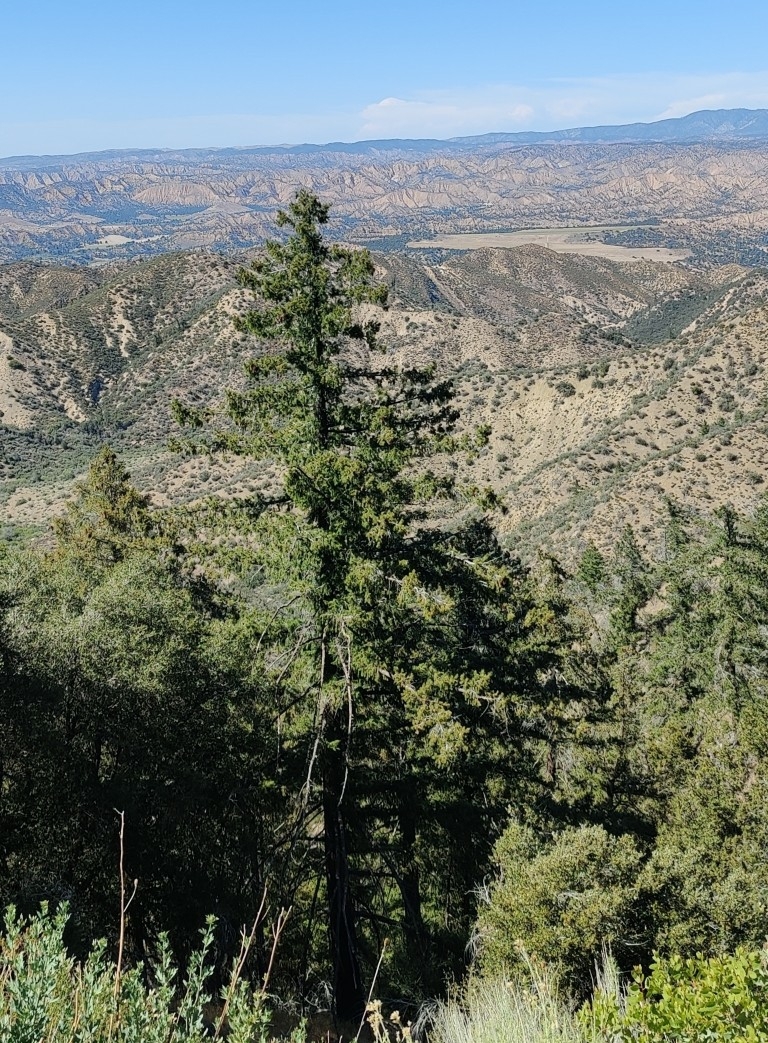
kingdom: Plantae
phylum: Tracheophyta
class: Pinopsida
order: Pinales
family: Pinaceae
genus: Pseudotsuga
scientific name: Pseudotsuga macrocarpa
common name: Big-cone douglas-fir
